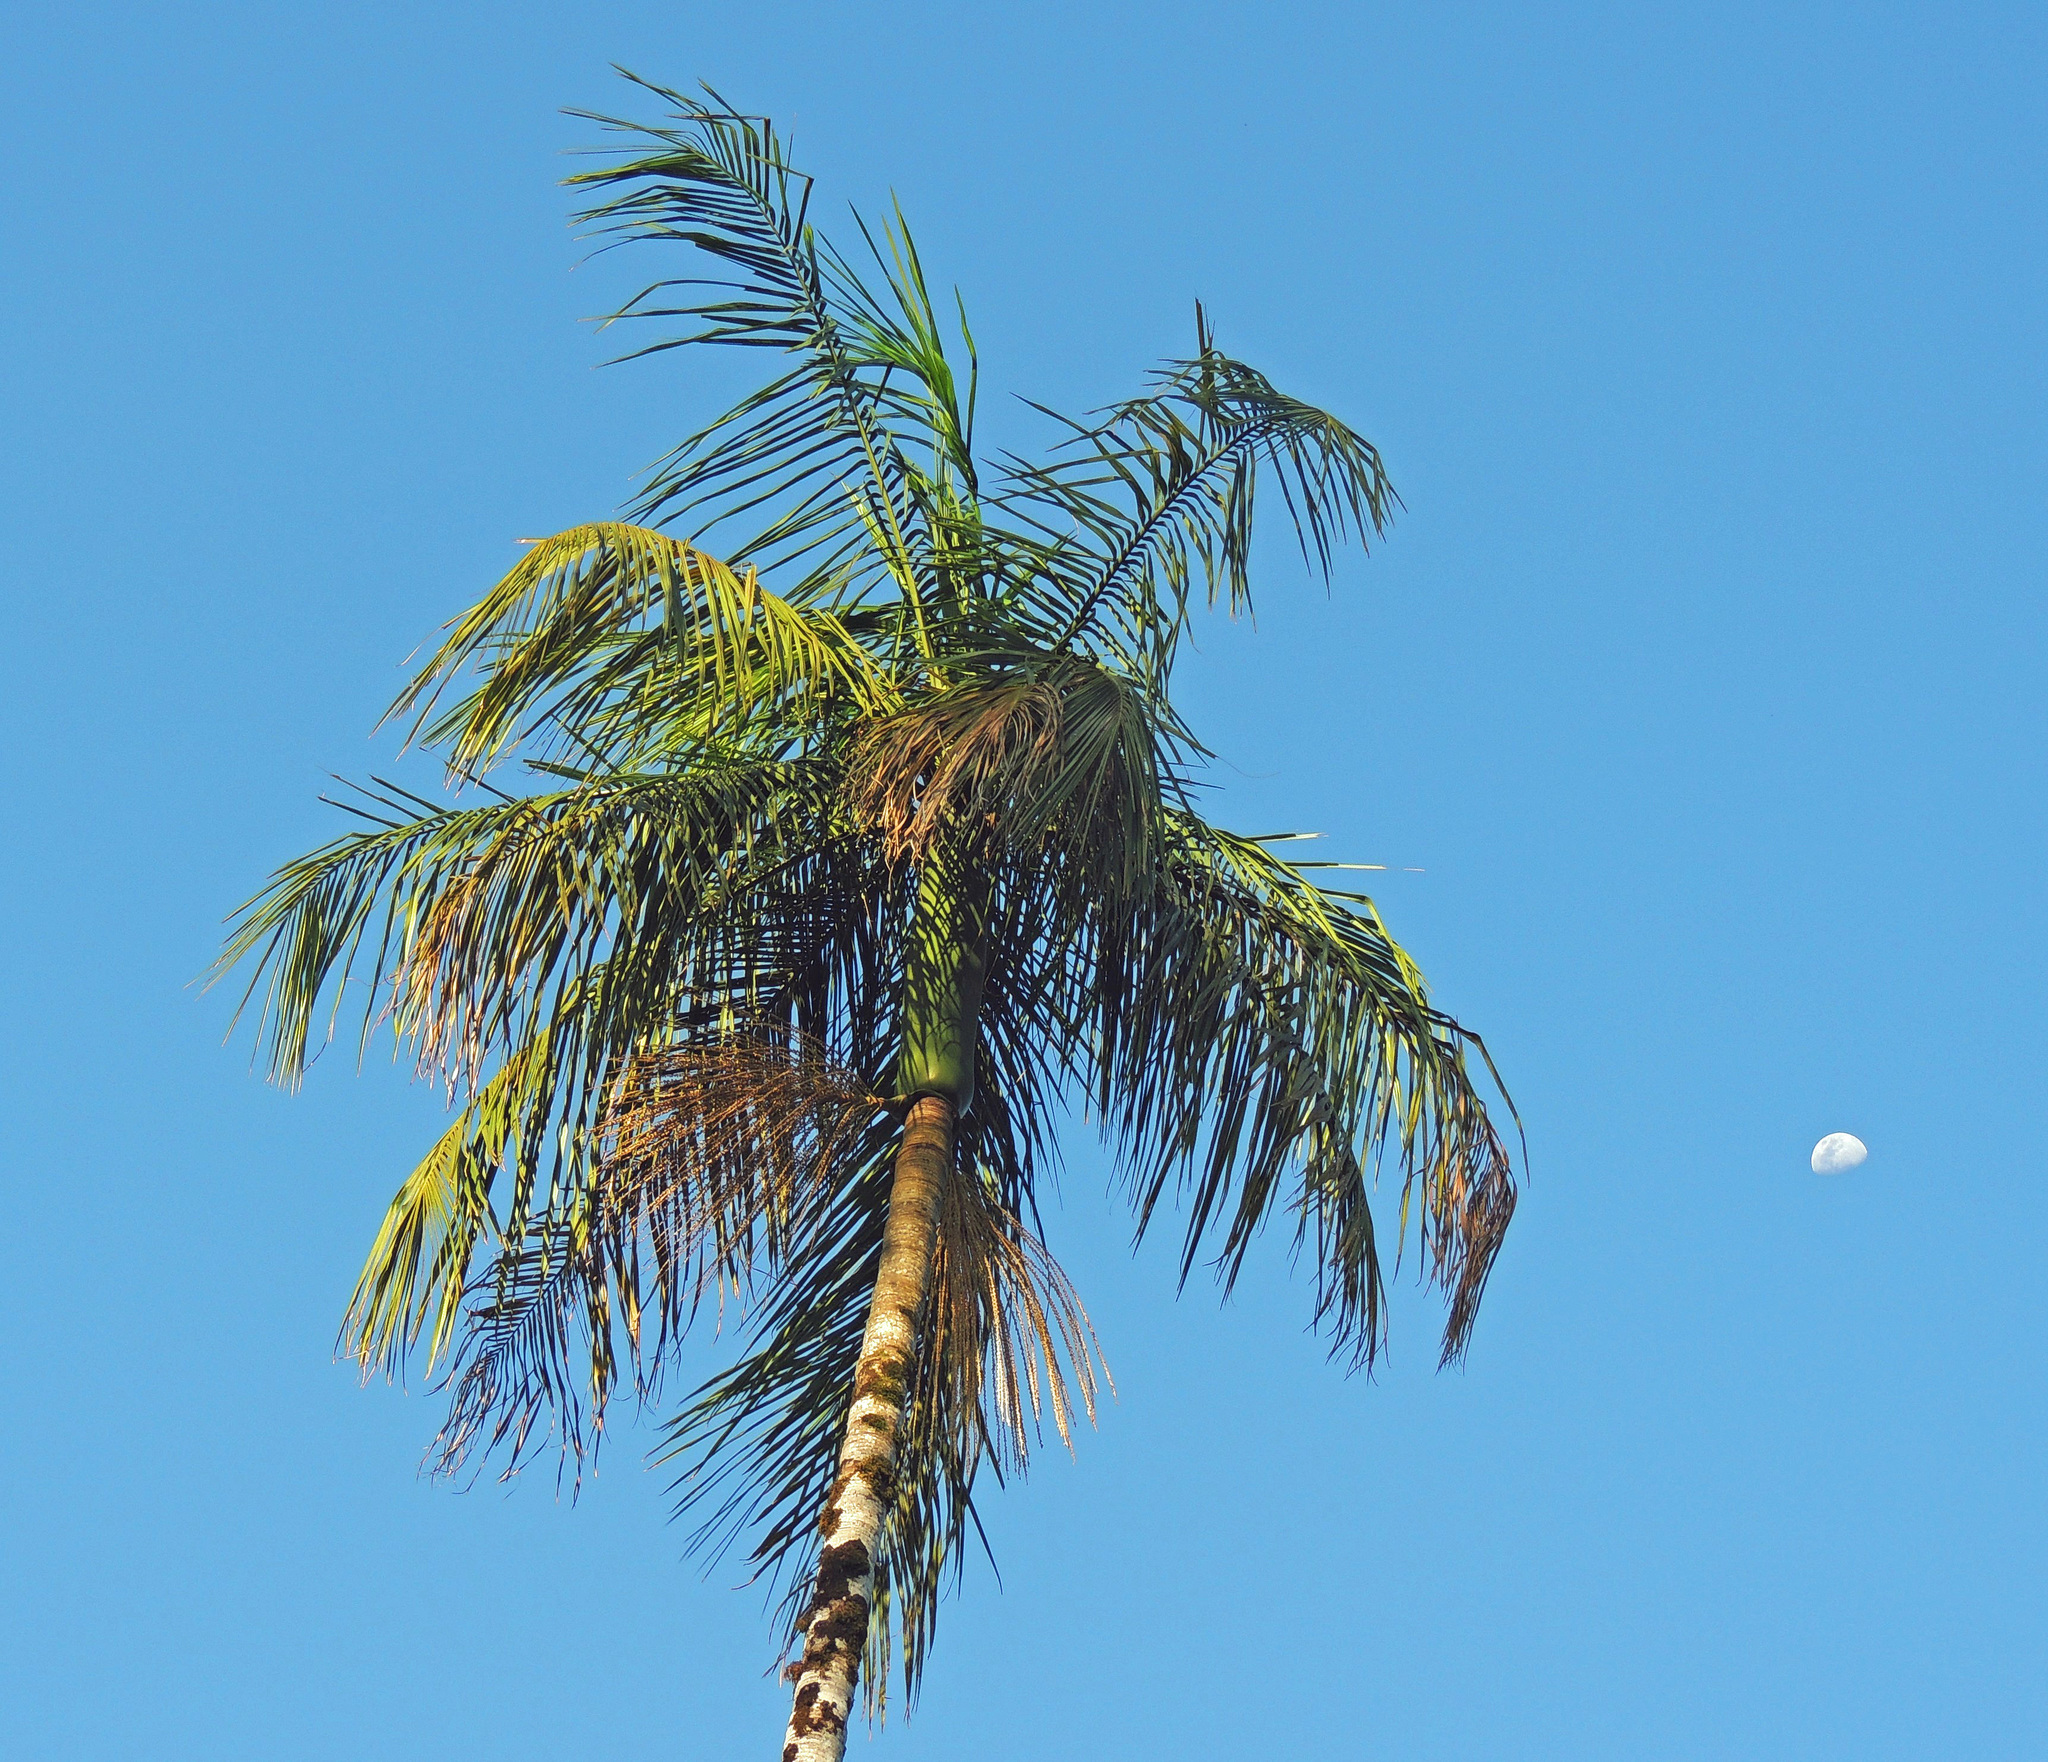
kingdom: Plantae
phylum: Tracheophyta
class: Liliopsida
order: Arecales
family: Arecaceae
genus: Euterpe
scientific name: Euterpe edulis
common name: Assai palm
